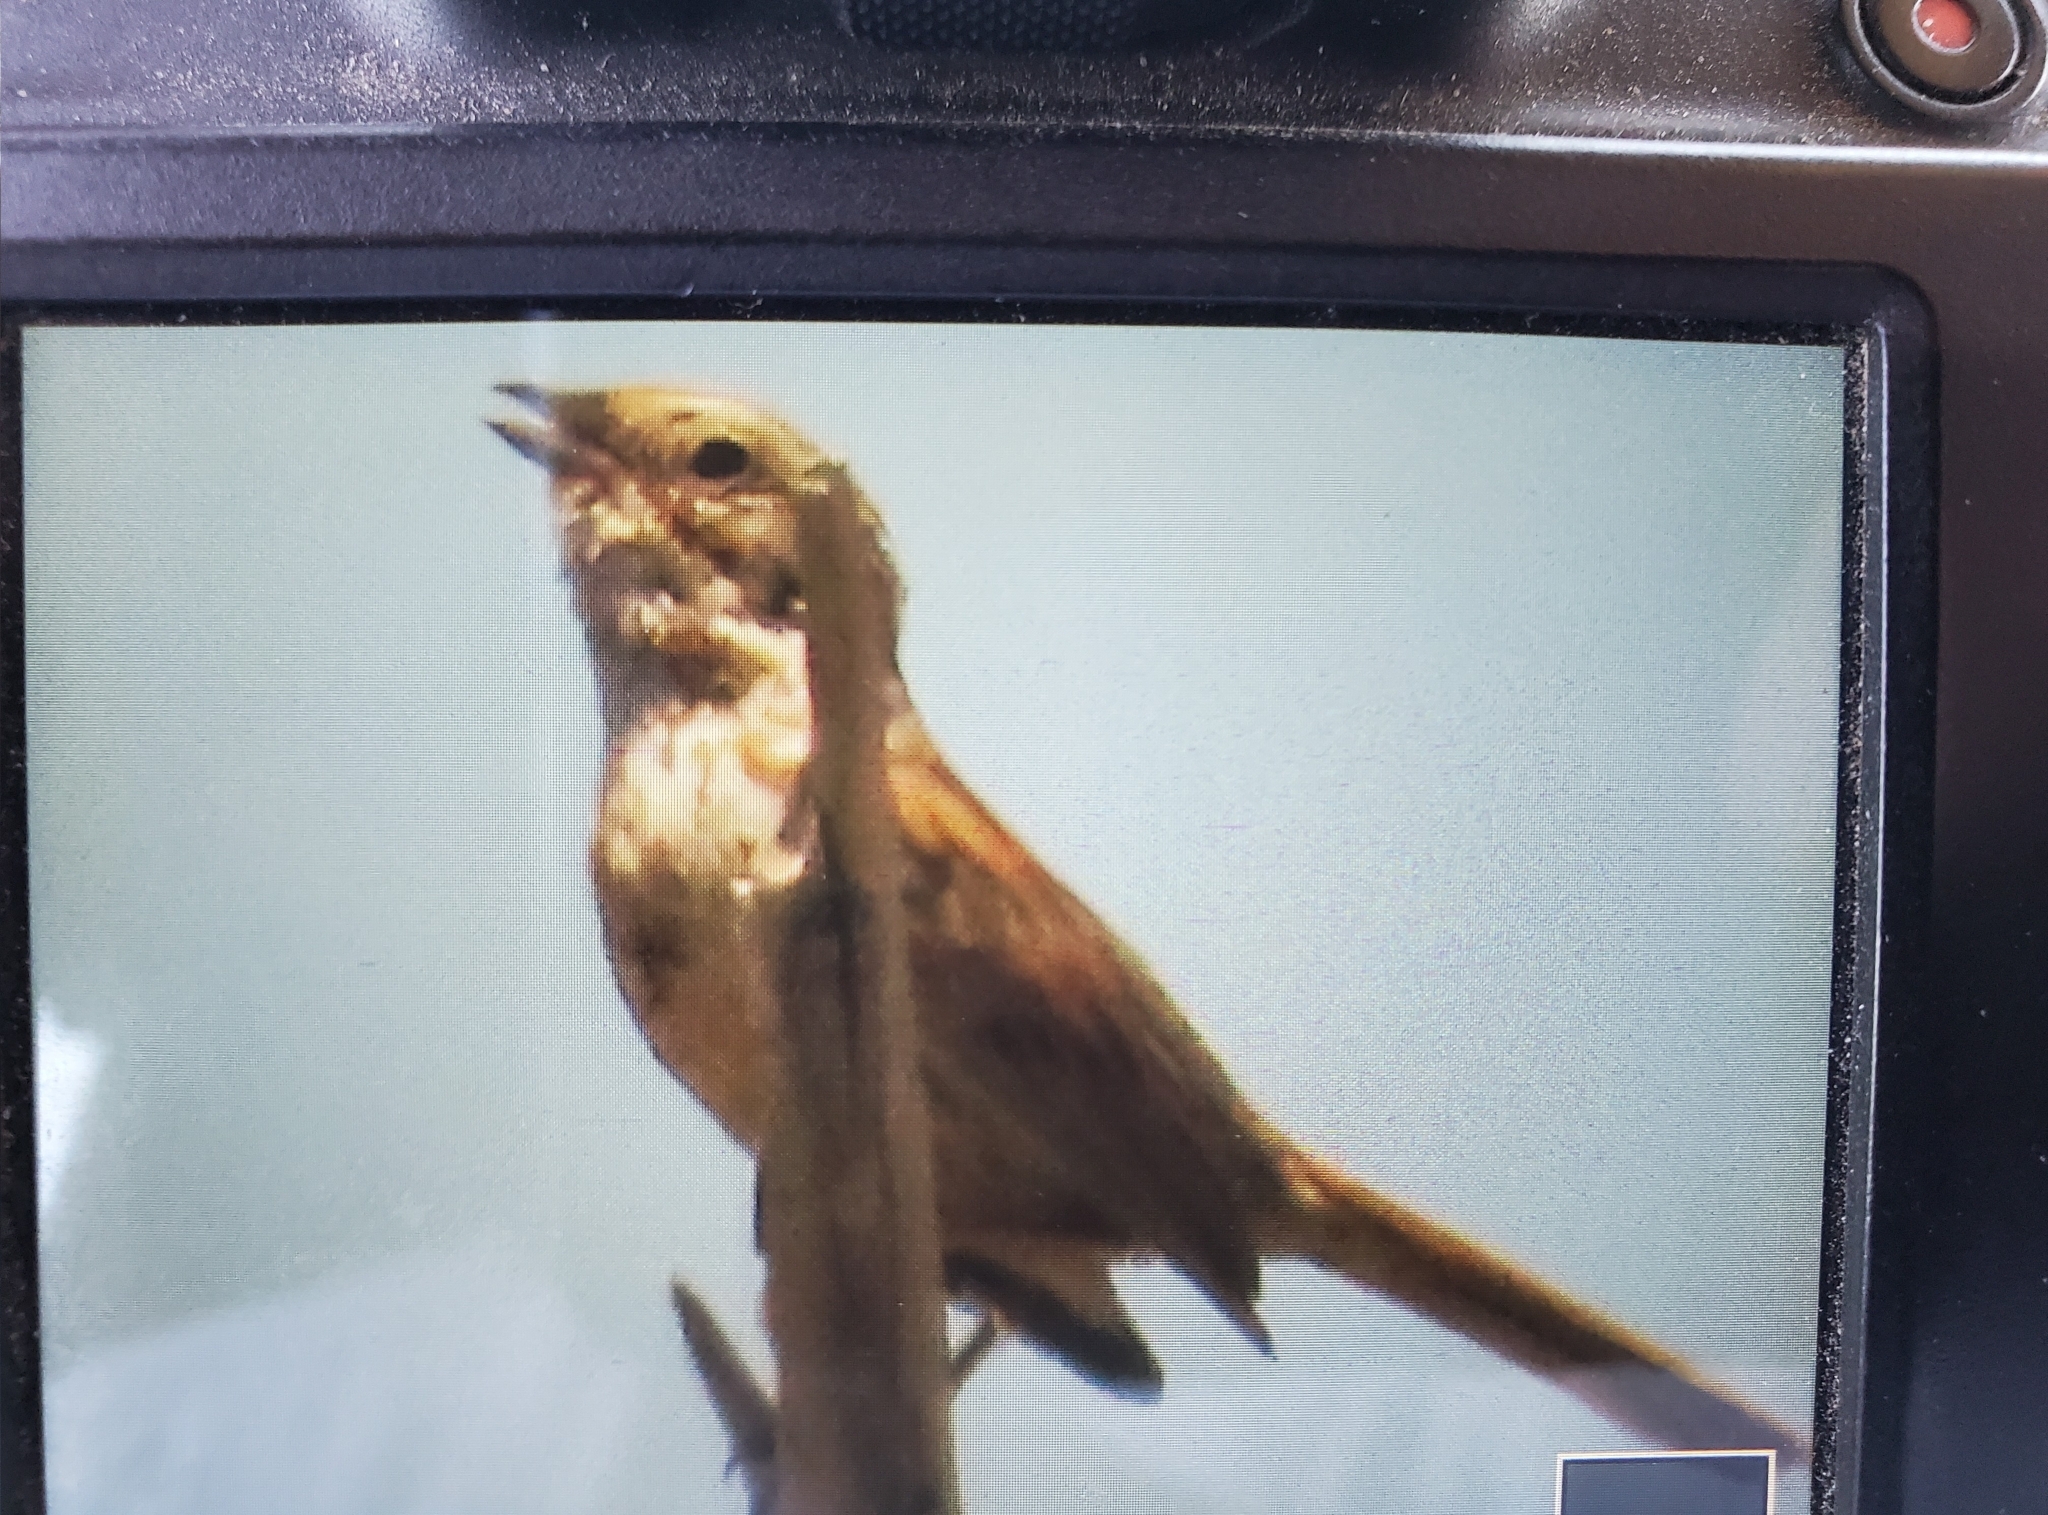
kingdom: Animalia
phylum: Chordata
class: Aves
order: Passeriformes
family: Passerellidae
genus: Melospiza
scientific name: Melospiza melodia
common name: Song sparrow
